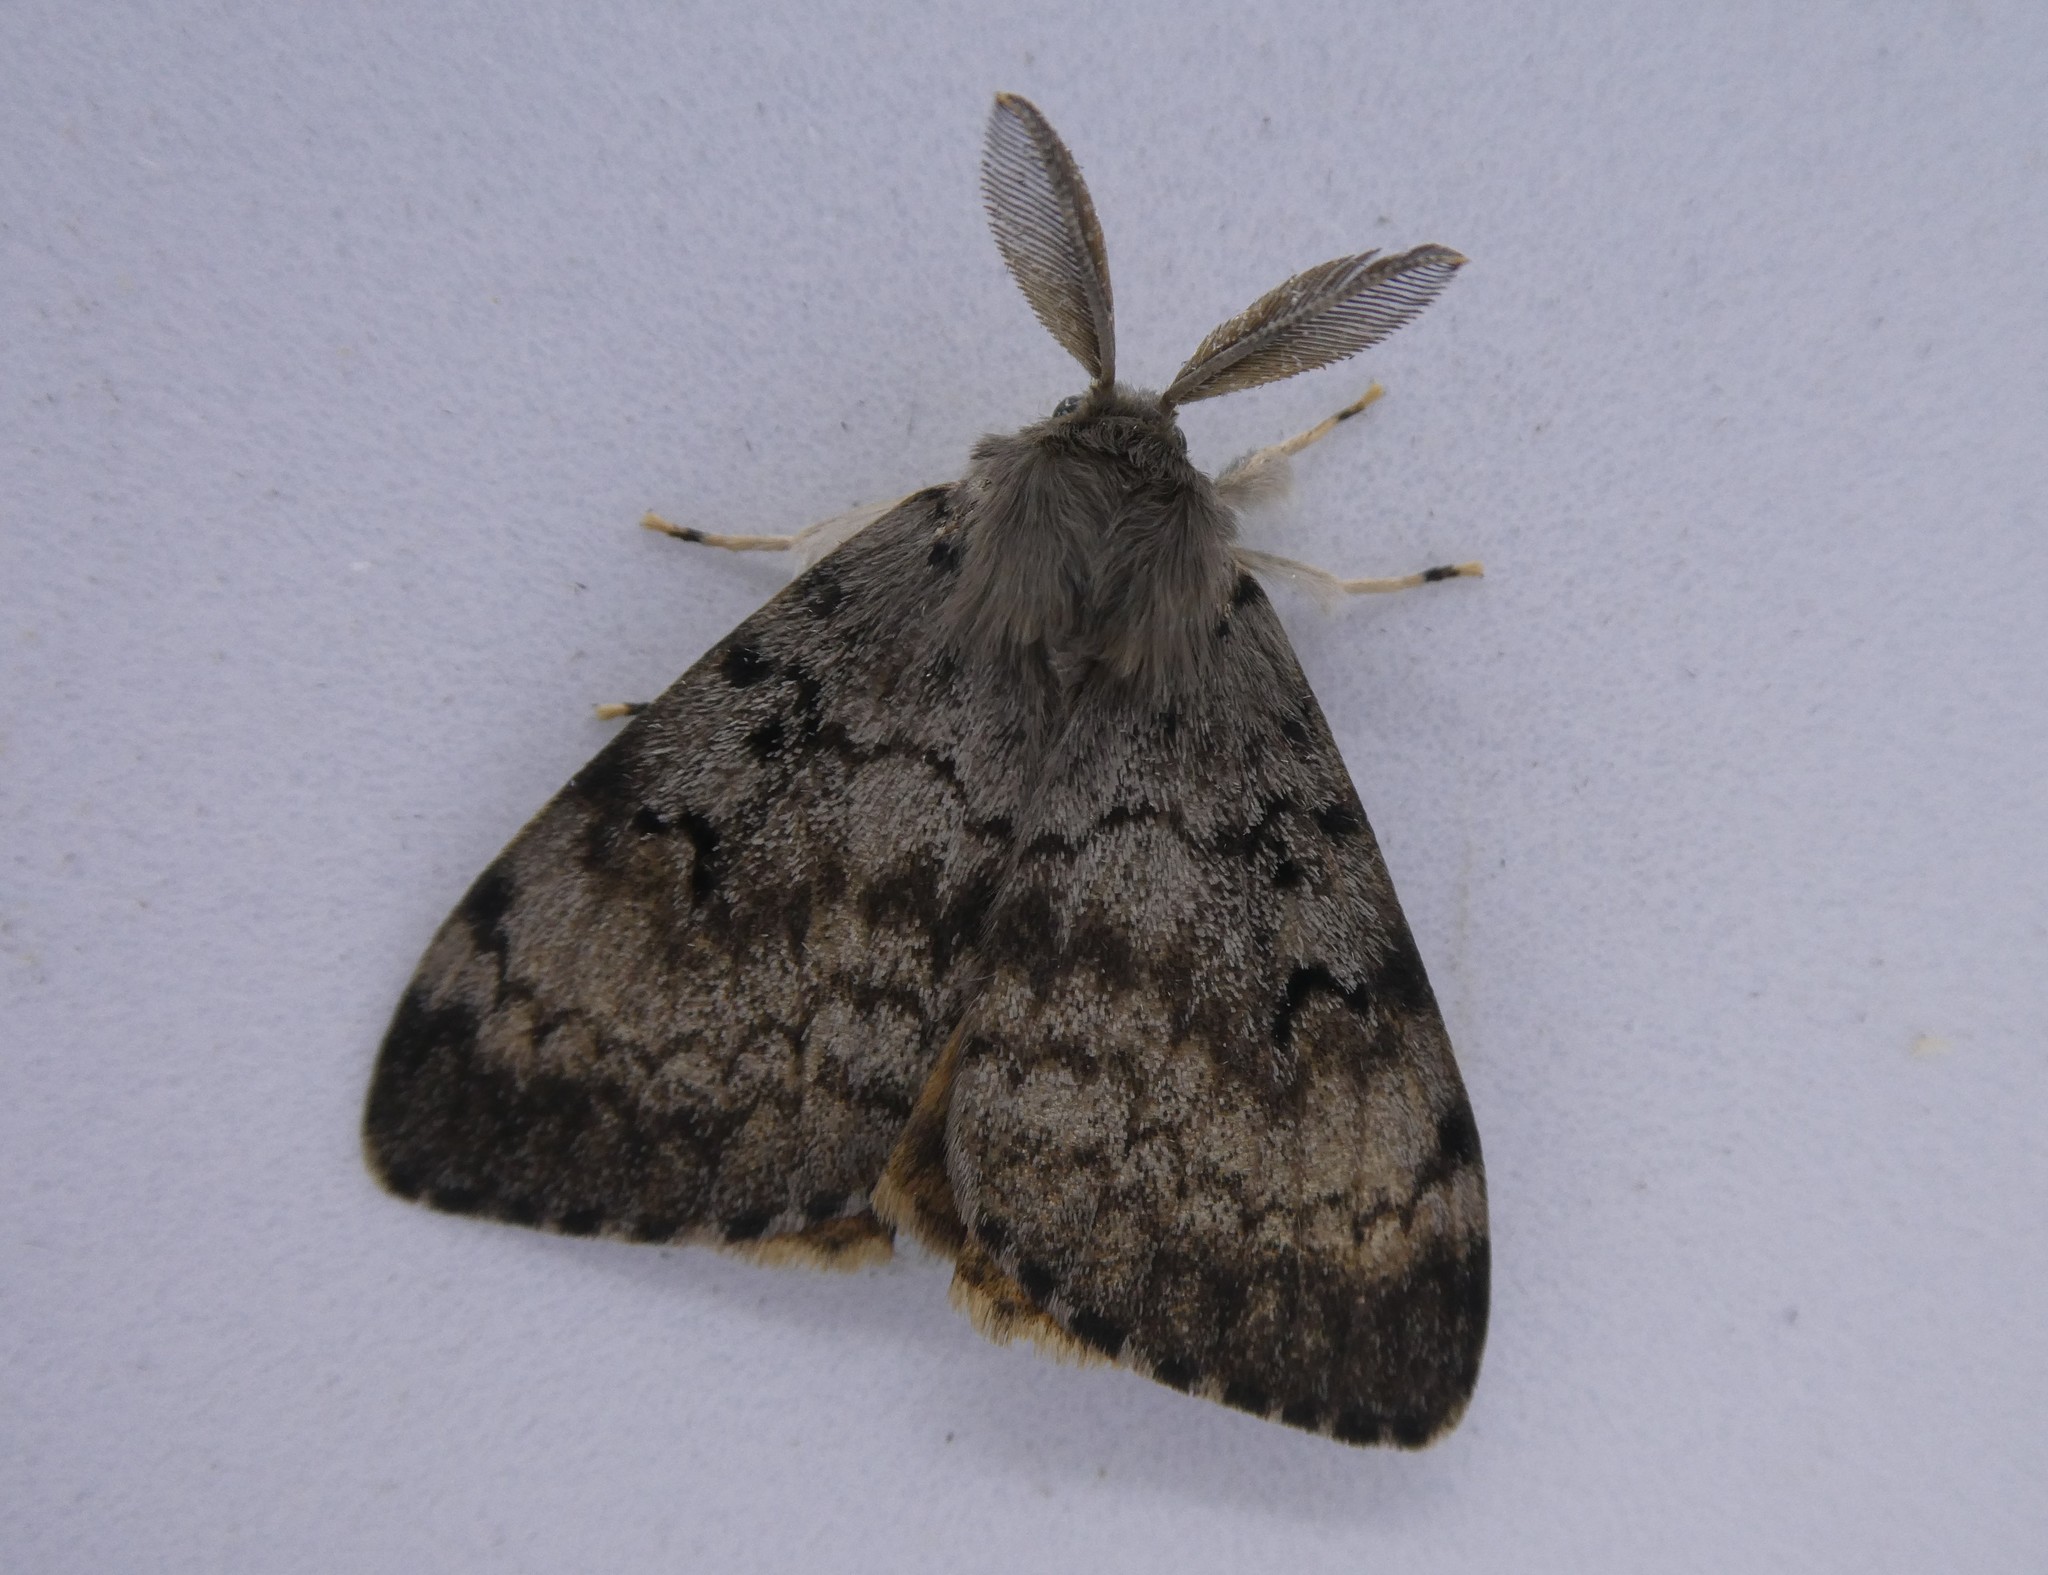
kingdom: Animalia
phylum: Arthropoda
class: Insecta
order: Lepidoptera
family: Erebidae
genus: Lymantria
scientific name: Lymantria dispar
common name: Gypsy moth
